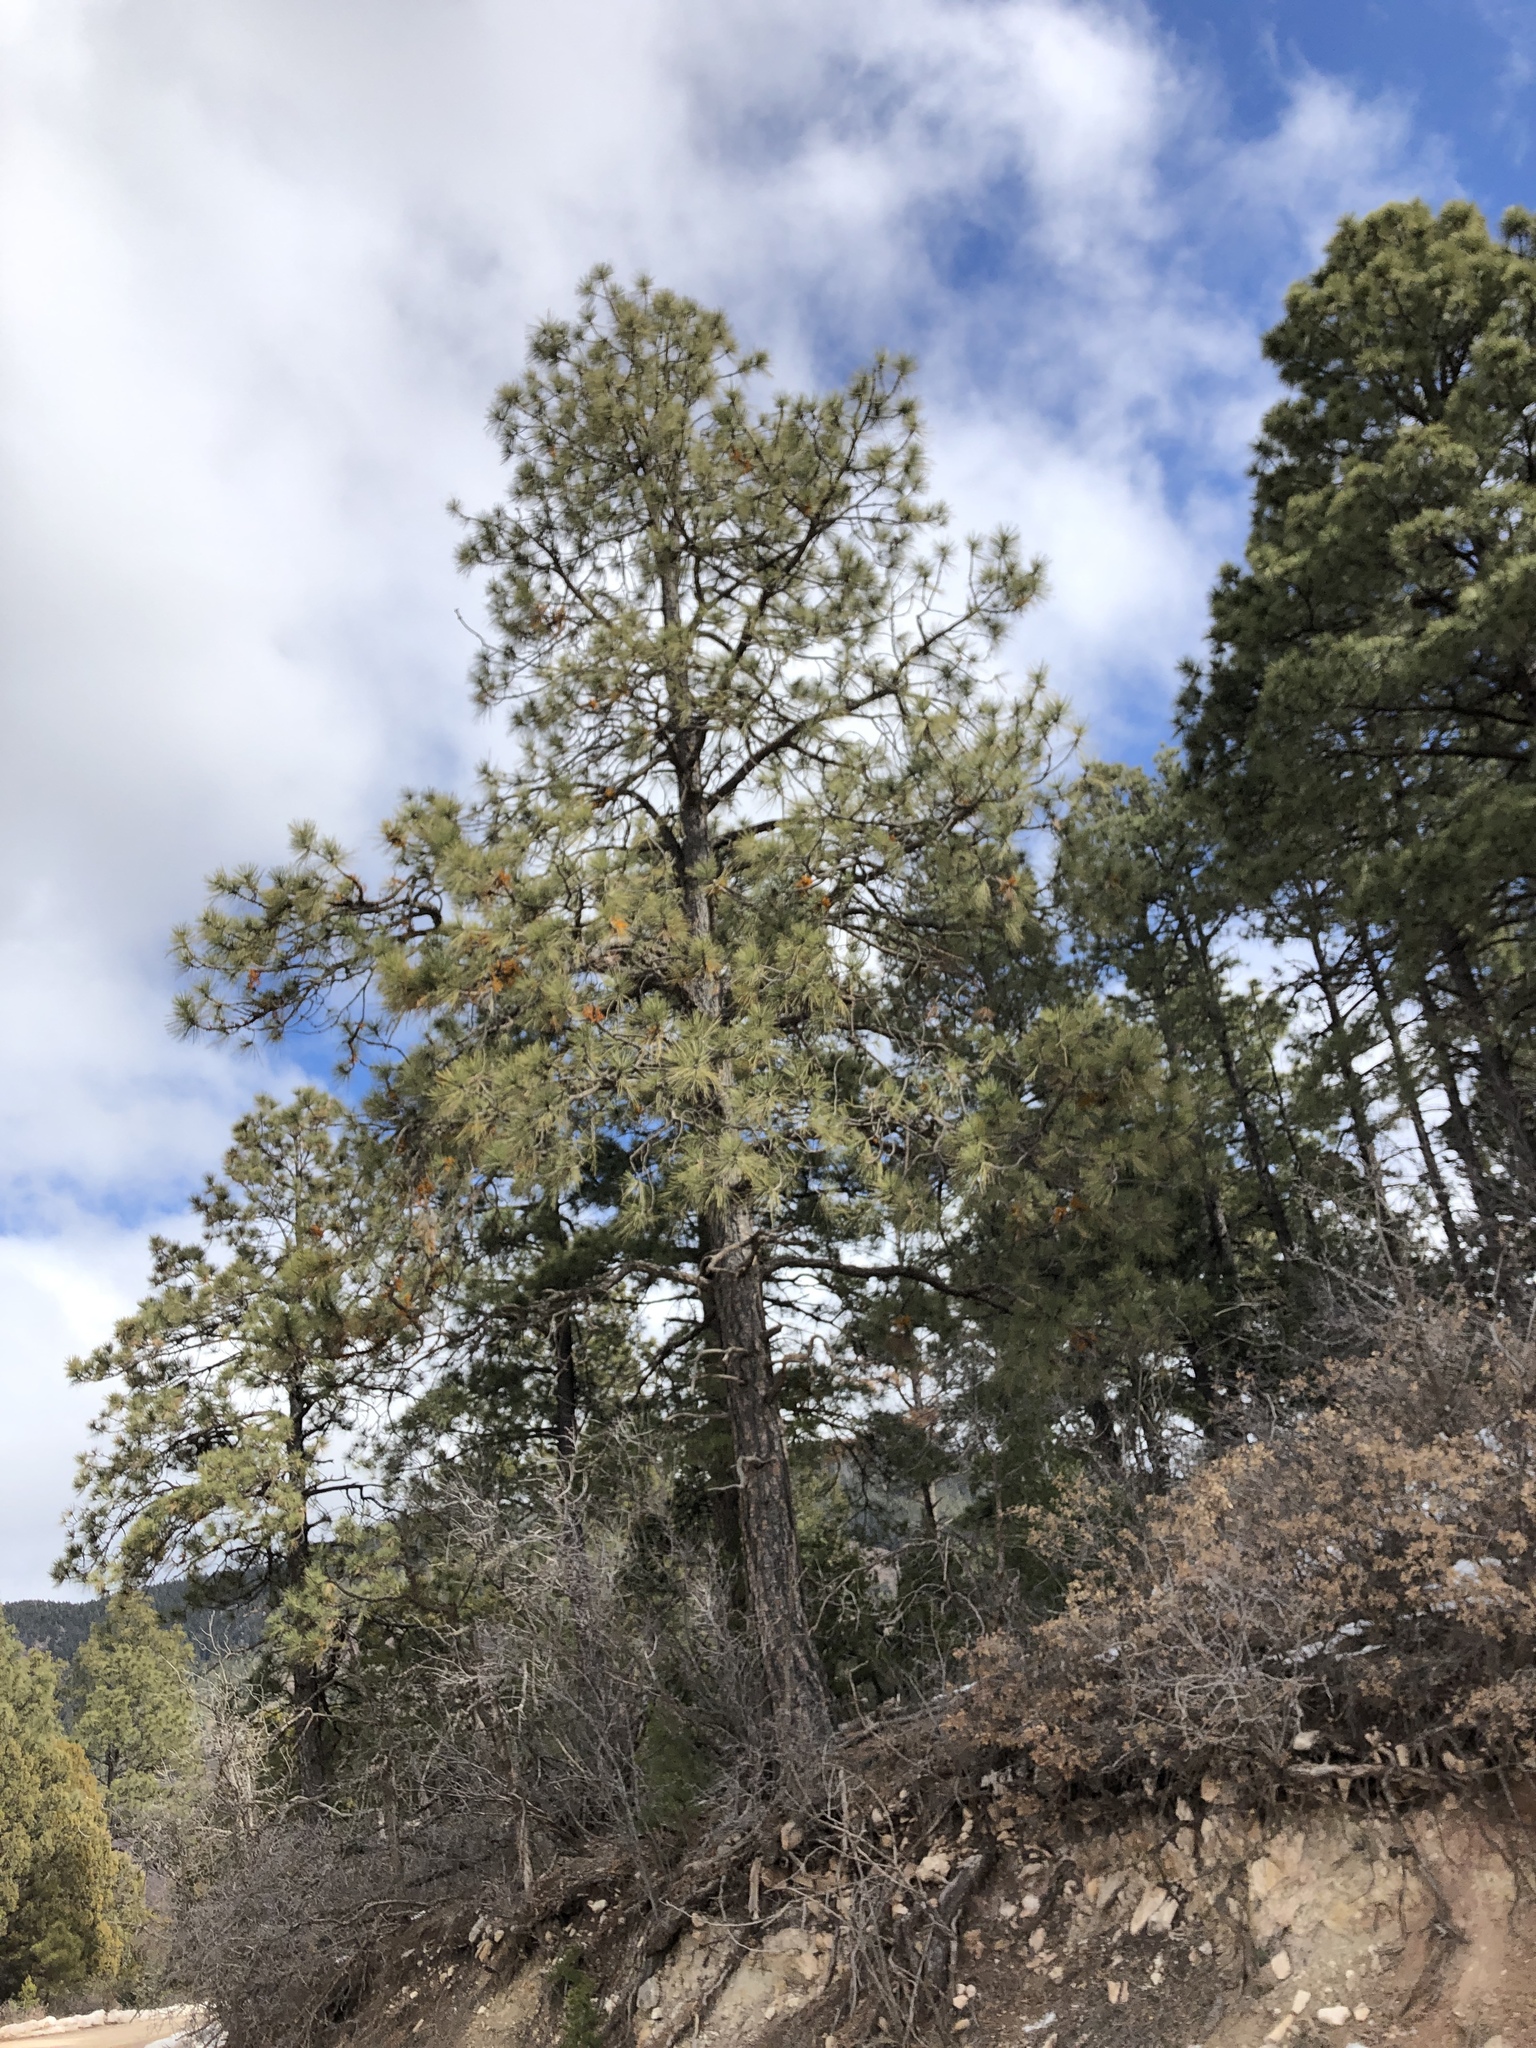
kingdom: Plantae
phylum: Tracheophyta
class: Pinopsida
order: Pinales
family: Pinaceae
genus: Pinus
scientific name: Pinus ponderosa
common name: Western yellow-pine
